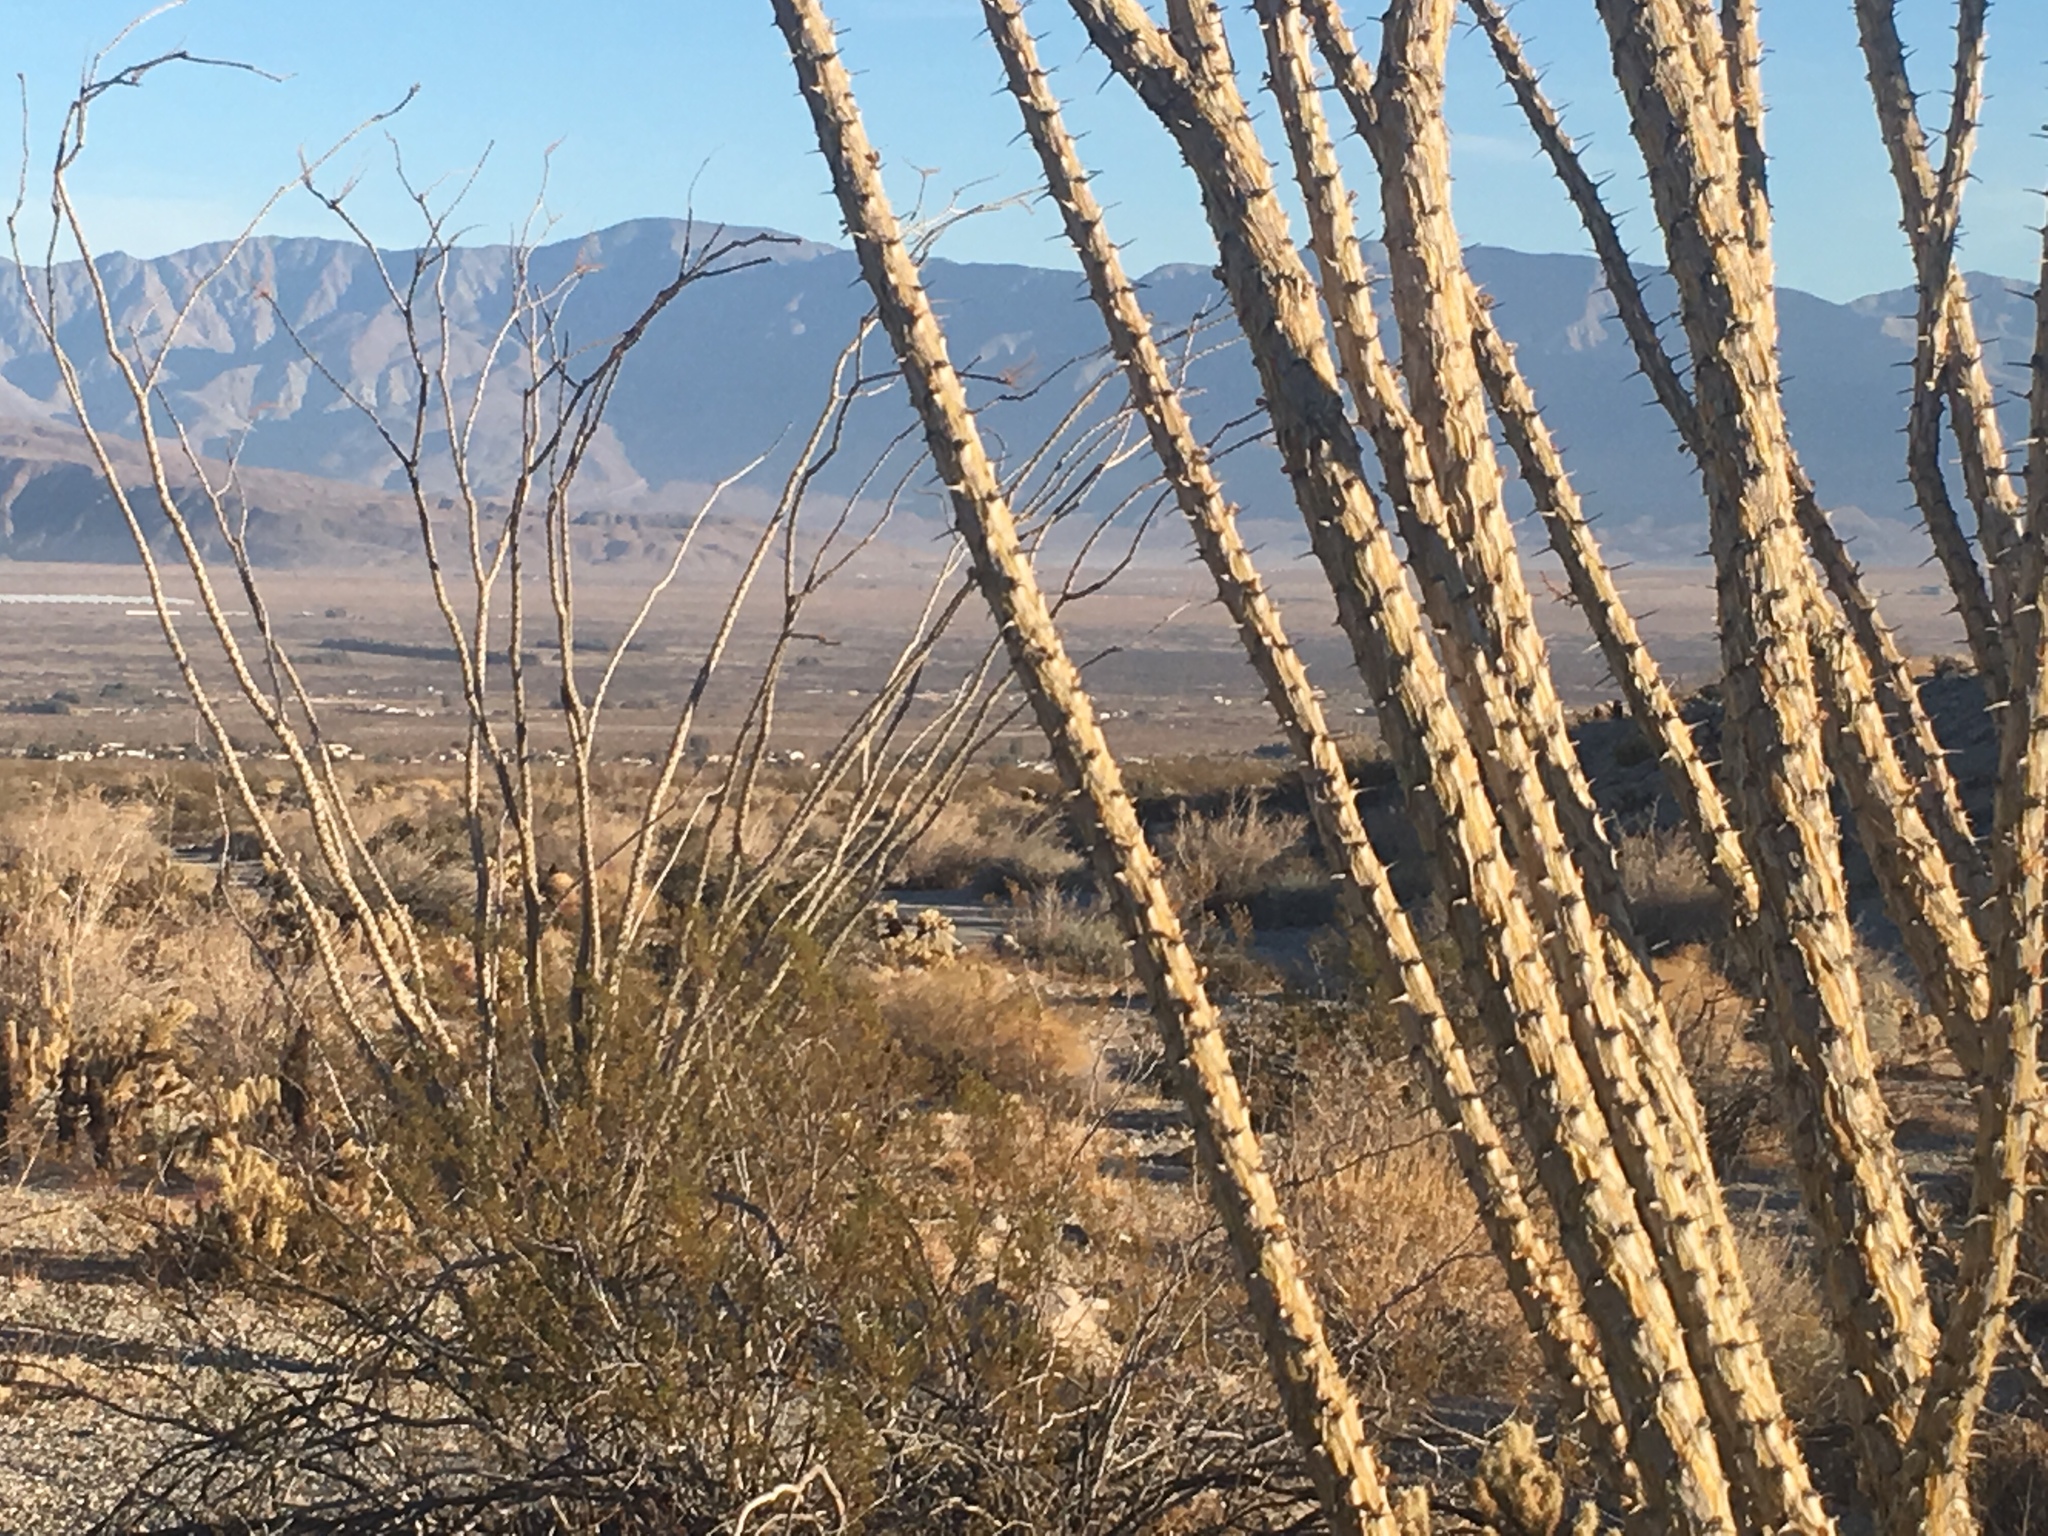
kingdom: Plantae
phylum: Tracheophyta
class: Magnoliopsida
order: Ericales
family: Fouquieriaceae
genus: Fouquieria
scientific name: Fouquieria splendens
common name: Vine-cactus
